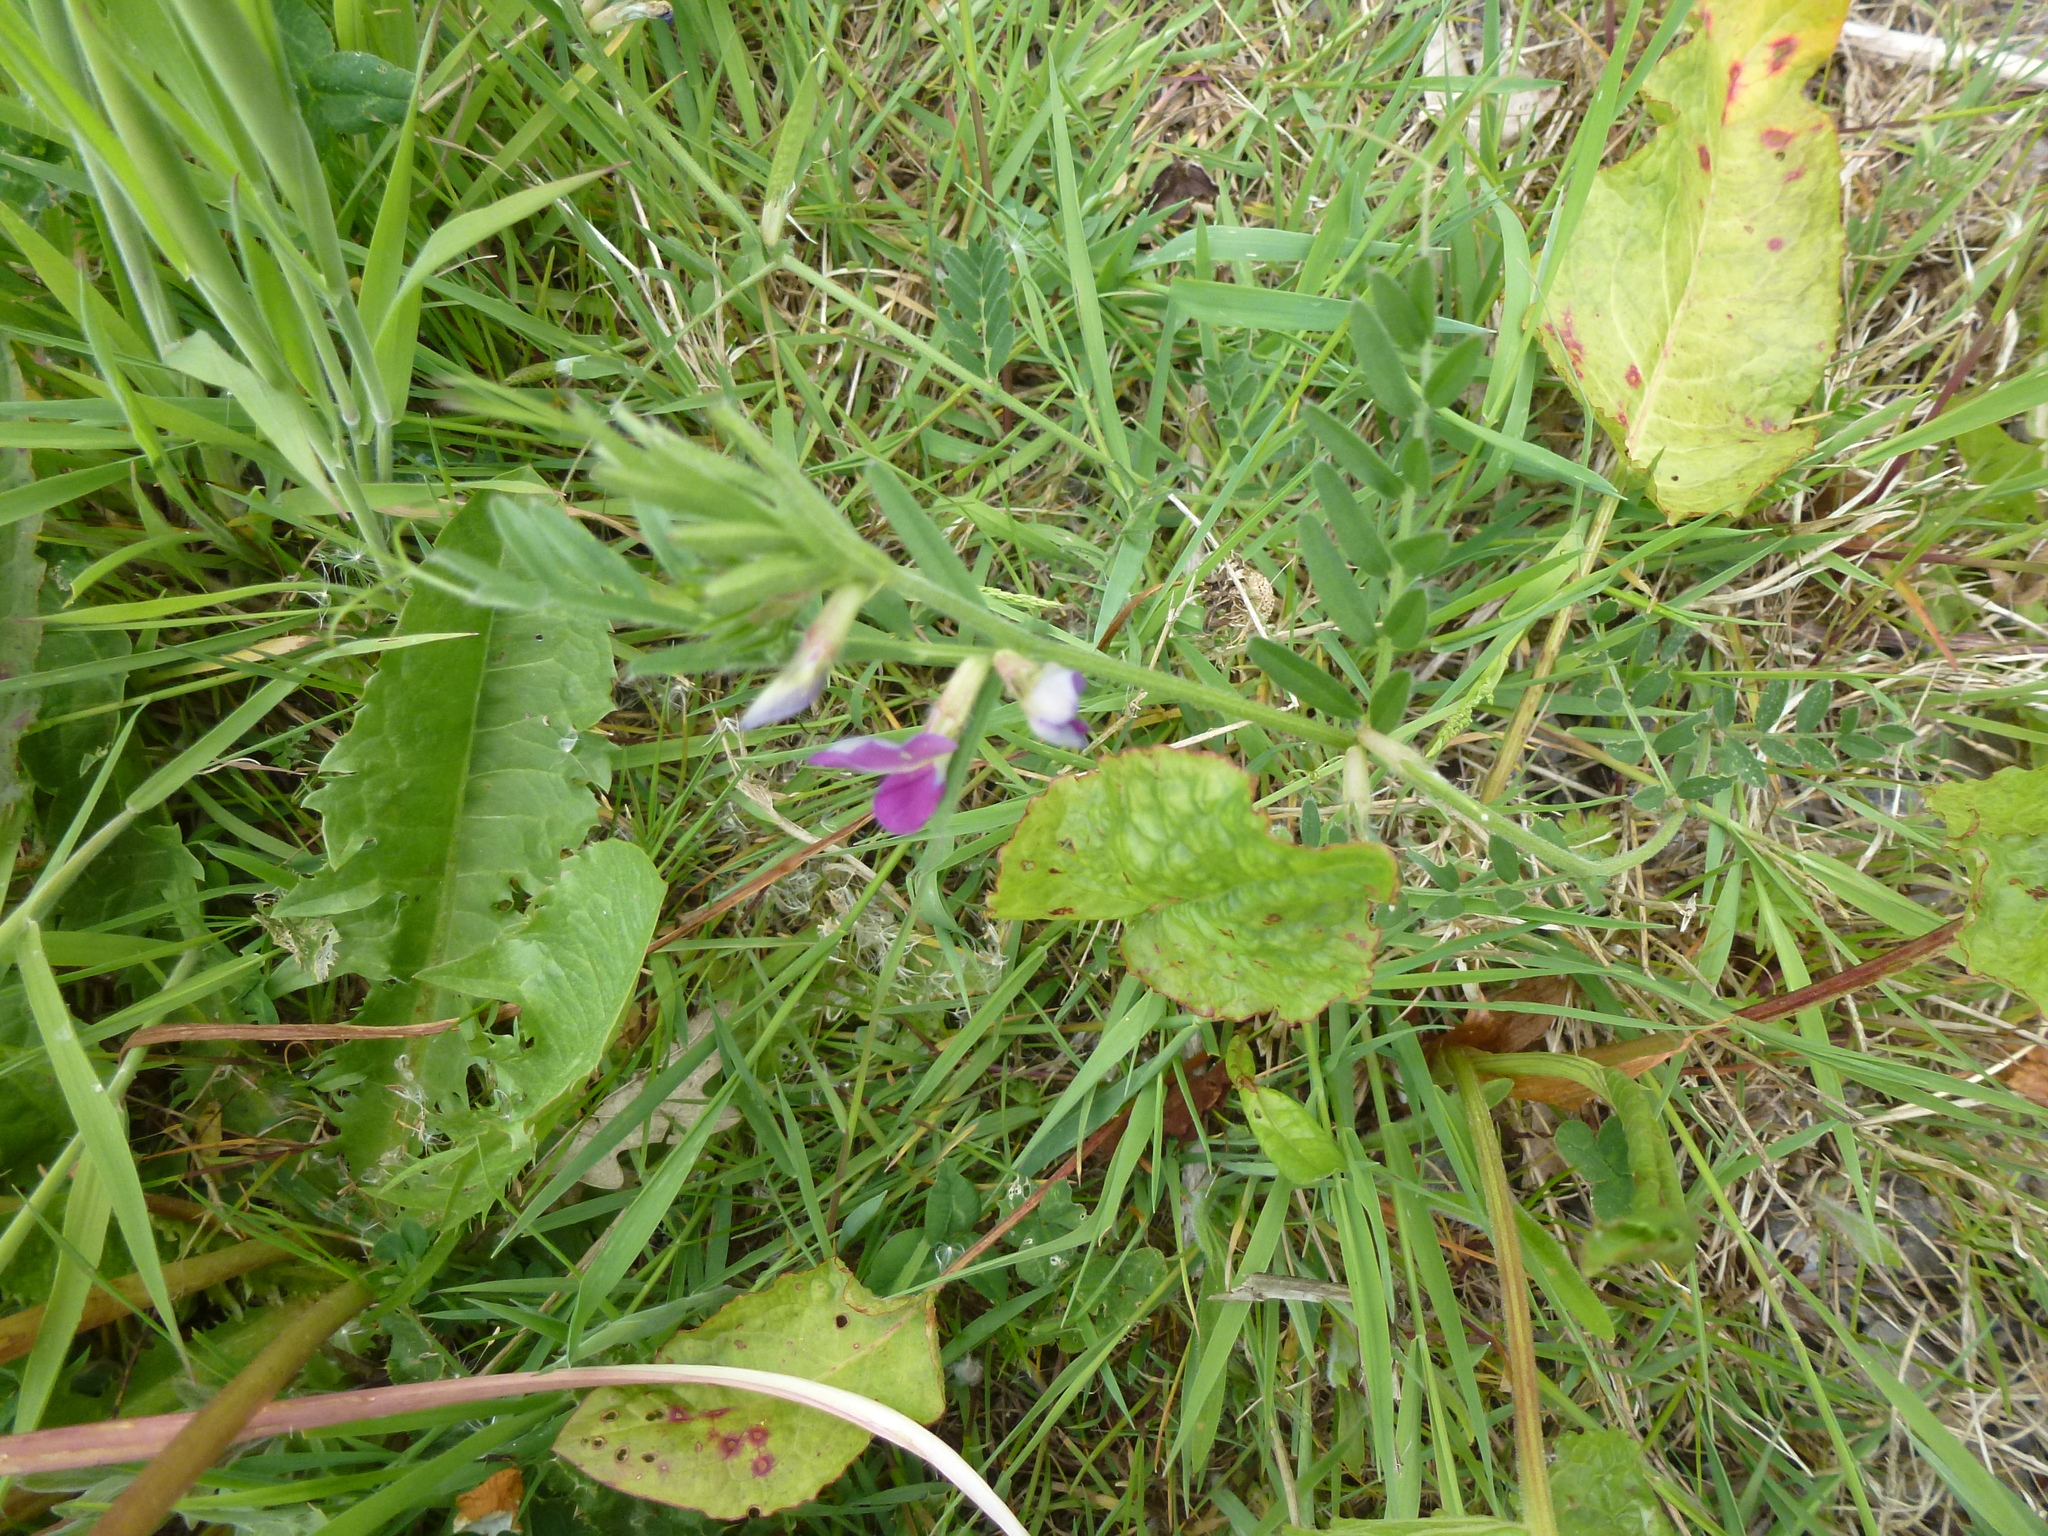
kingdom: Plantae
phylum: Tracheophyta
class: Magnoliopsida
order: Fabales
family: Fabaceae
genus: Vicia
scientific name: Vicia sativa
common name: Garden vetch
